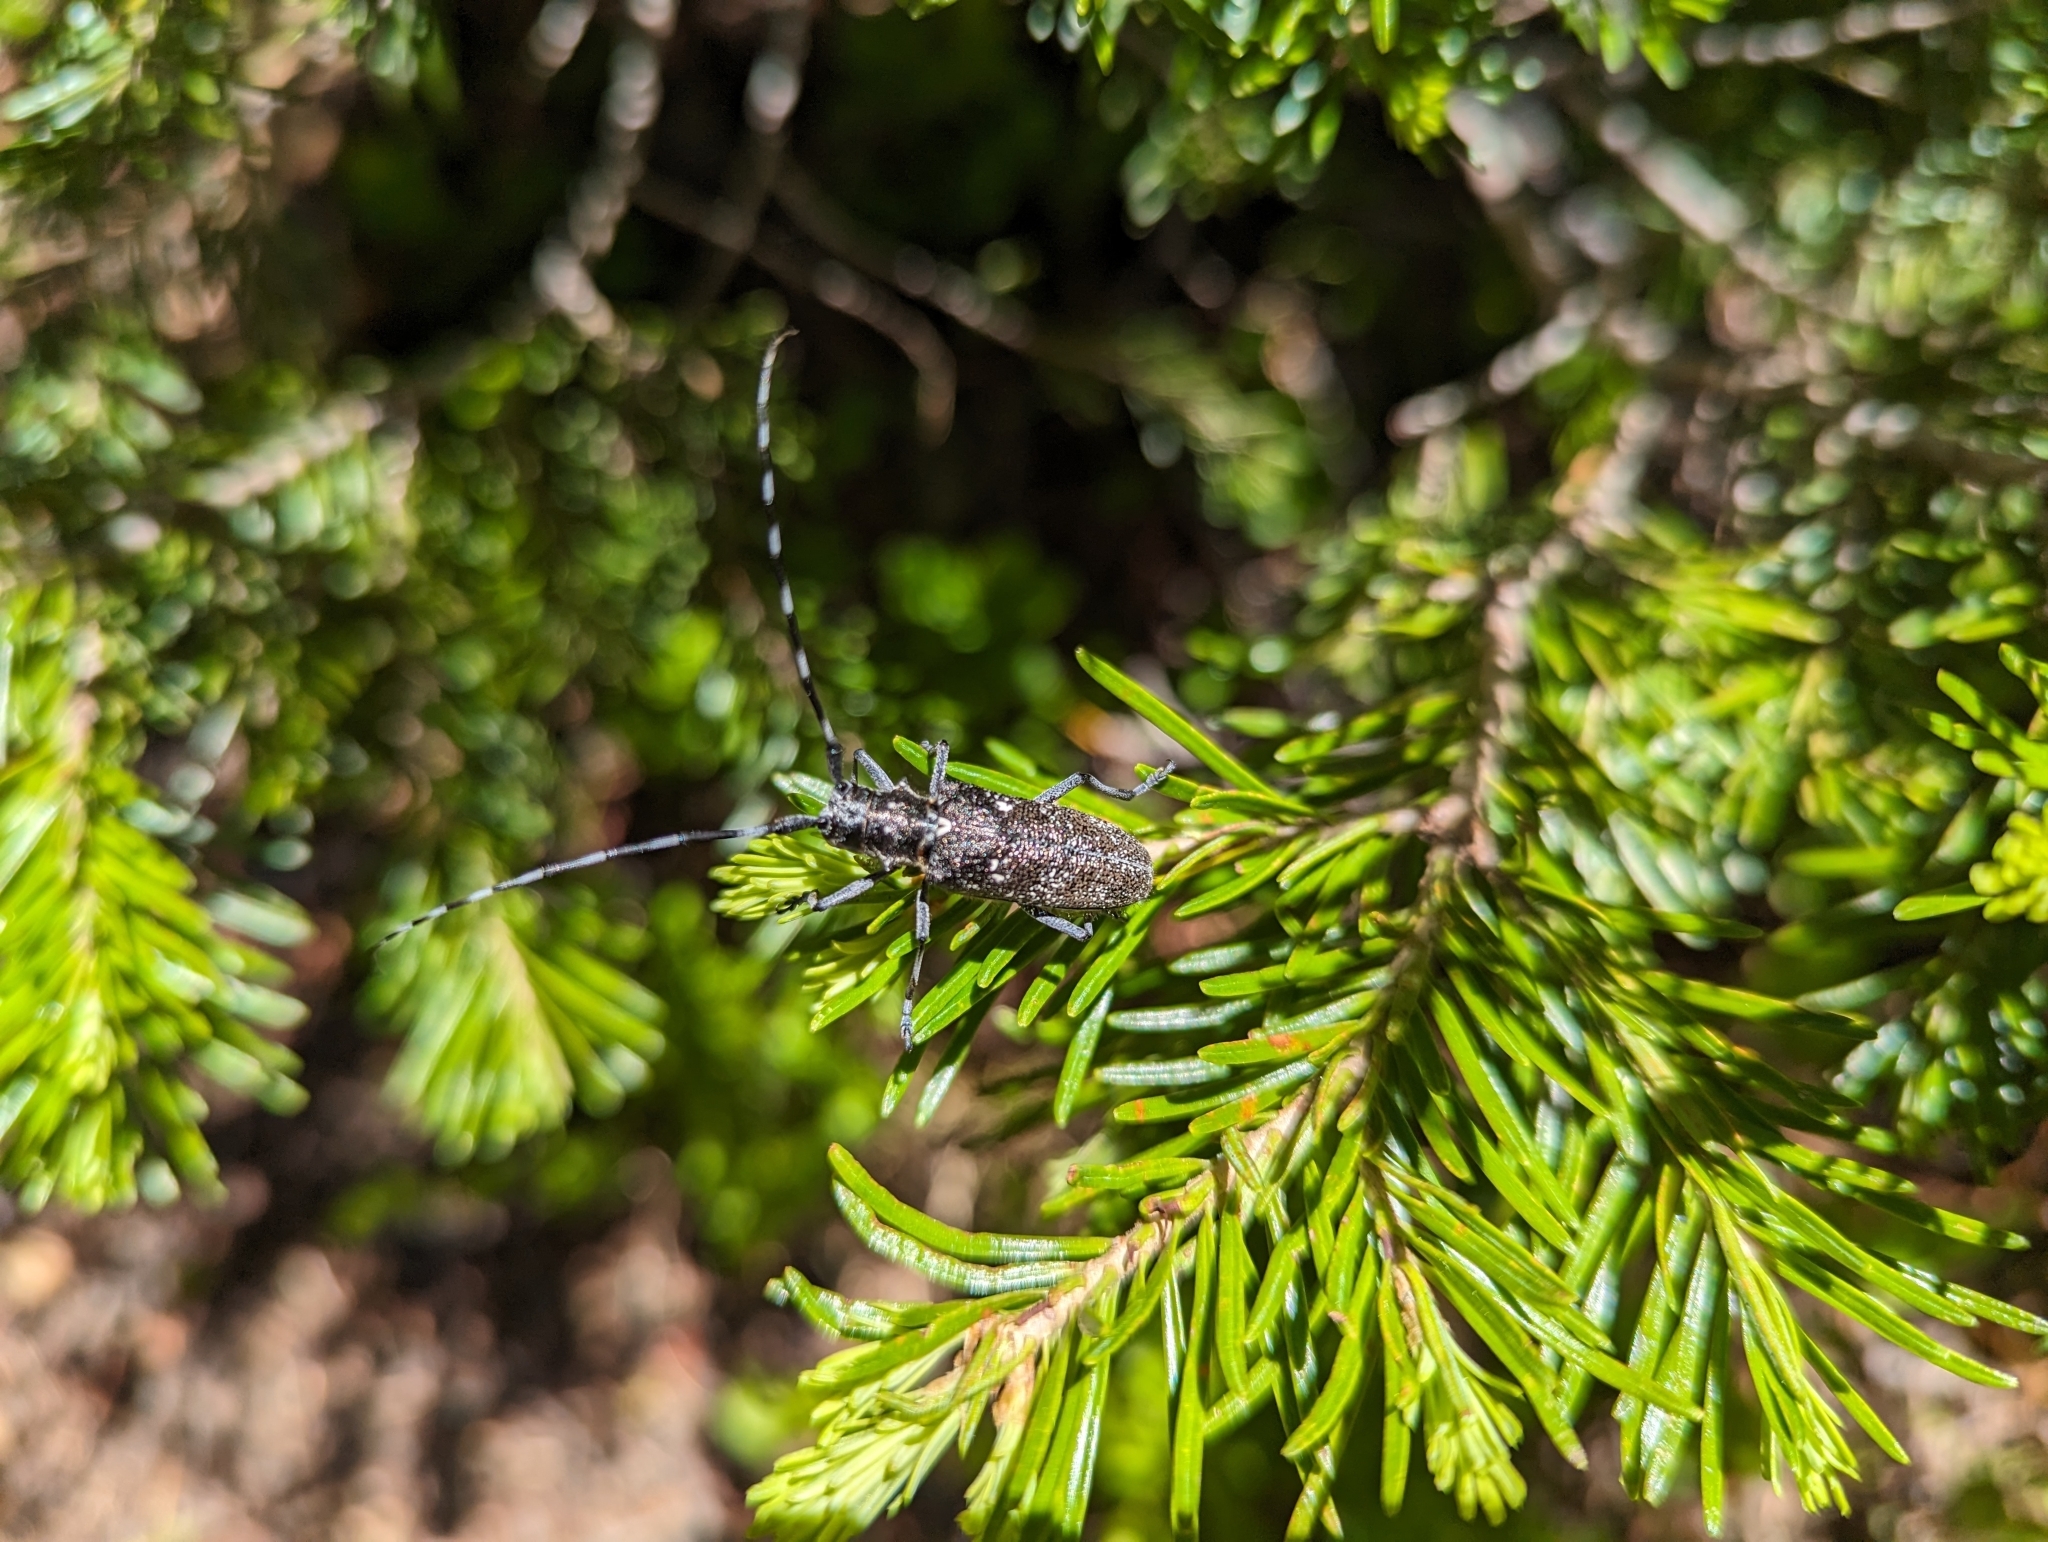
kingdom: Animalia
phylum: Arthropoda
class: Insecta
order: Coleoptera
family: Cerambycidae
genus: Monochamus
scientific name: Monochamus scutellatus
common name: White-spotted sawyer beetle
